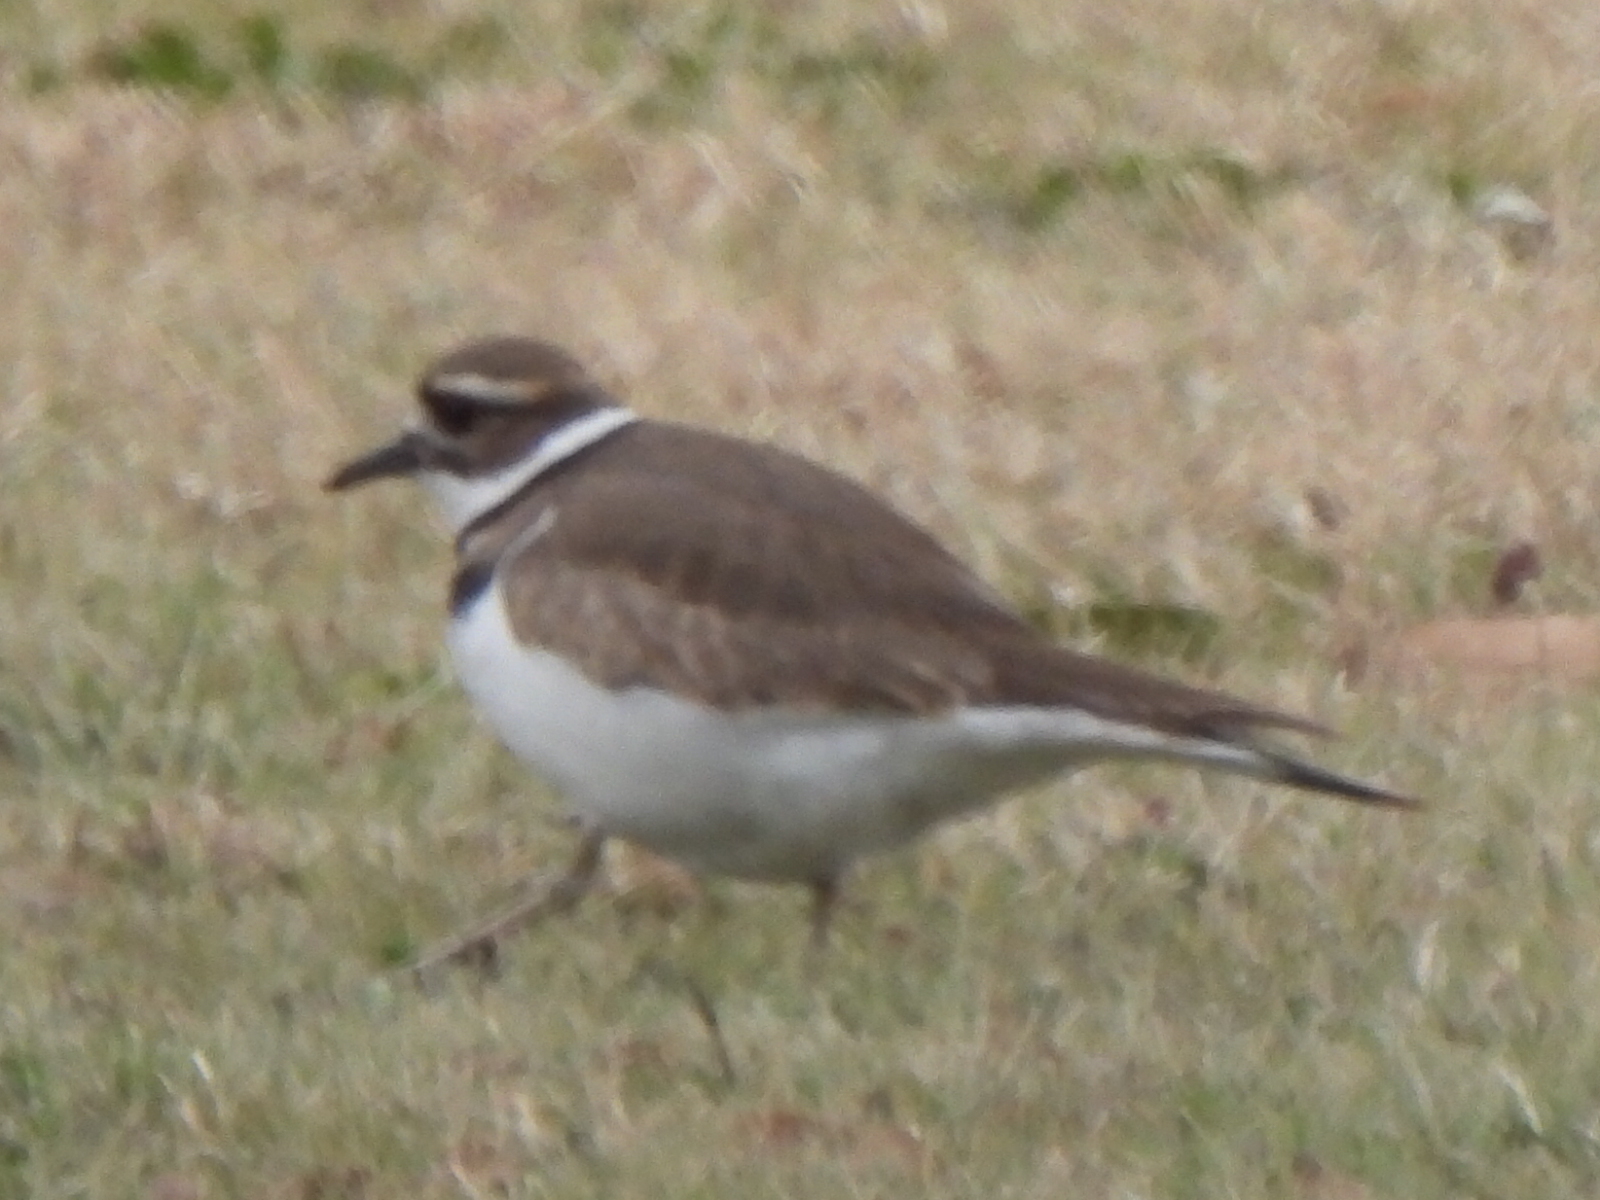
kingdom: Animalia
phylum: Chordata
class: Aves
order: Charadriiformes
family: Charadriidae
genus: Charadrius
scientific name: Charadrius vociferus
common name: Killdeer
